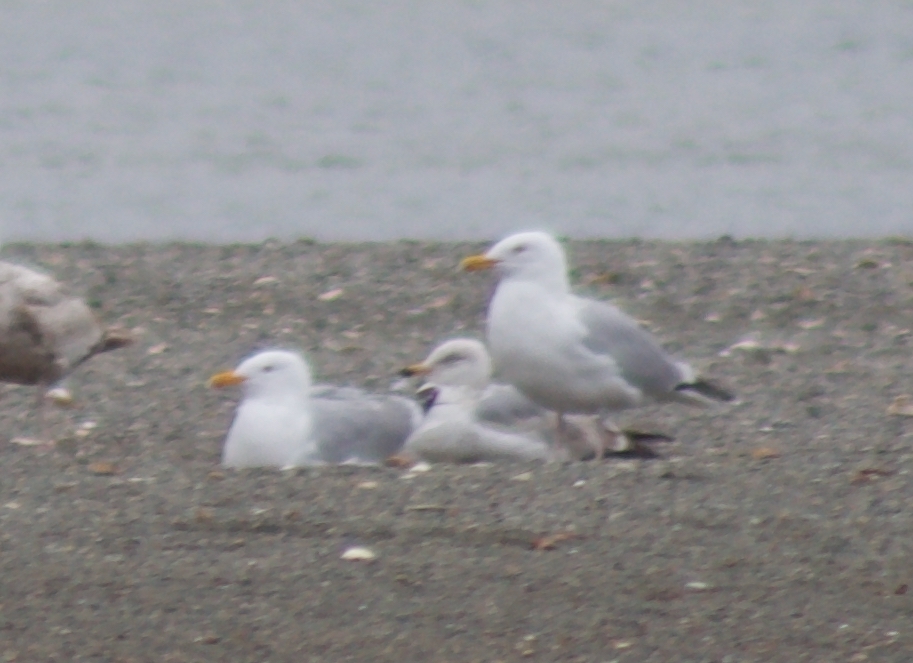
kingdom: Animalia
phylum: Chordata
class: Aves
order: Charadriiformes
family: Laridae
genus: Larus
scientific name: Larus argentatus
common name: Herring gull
